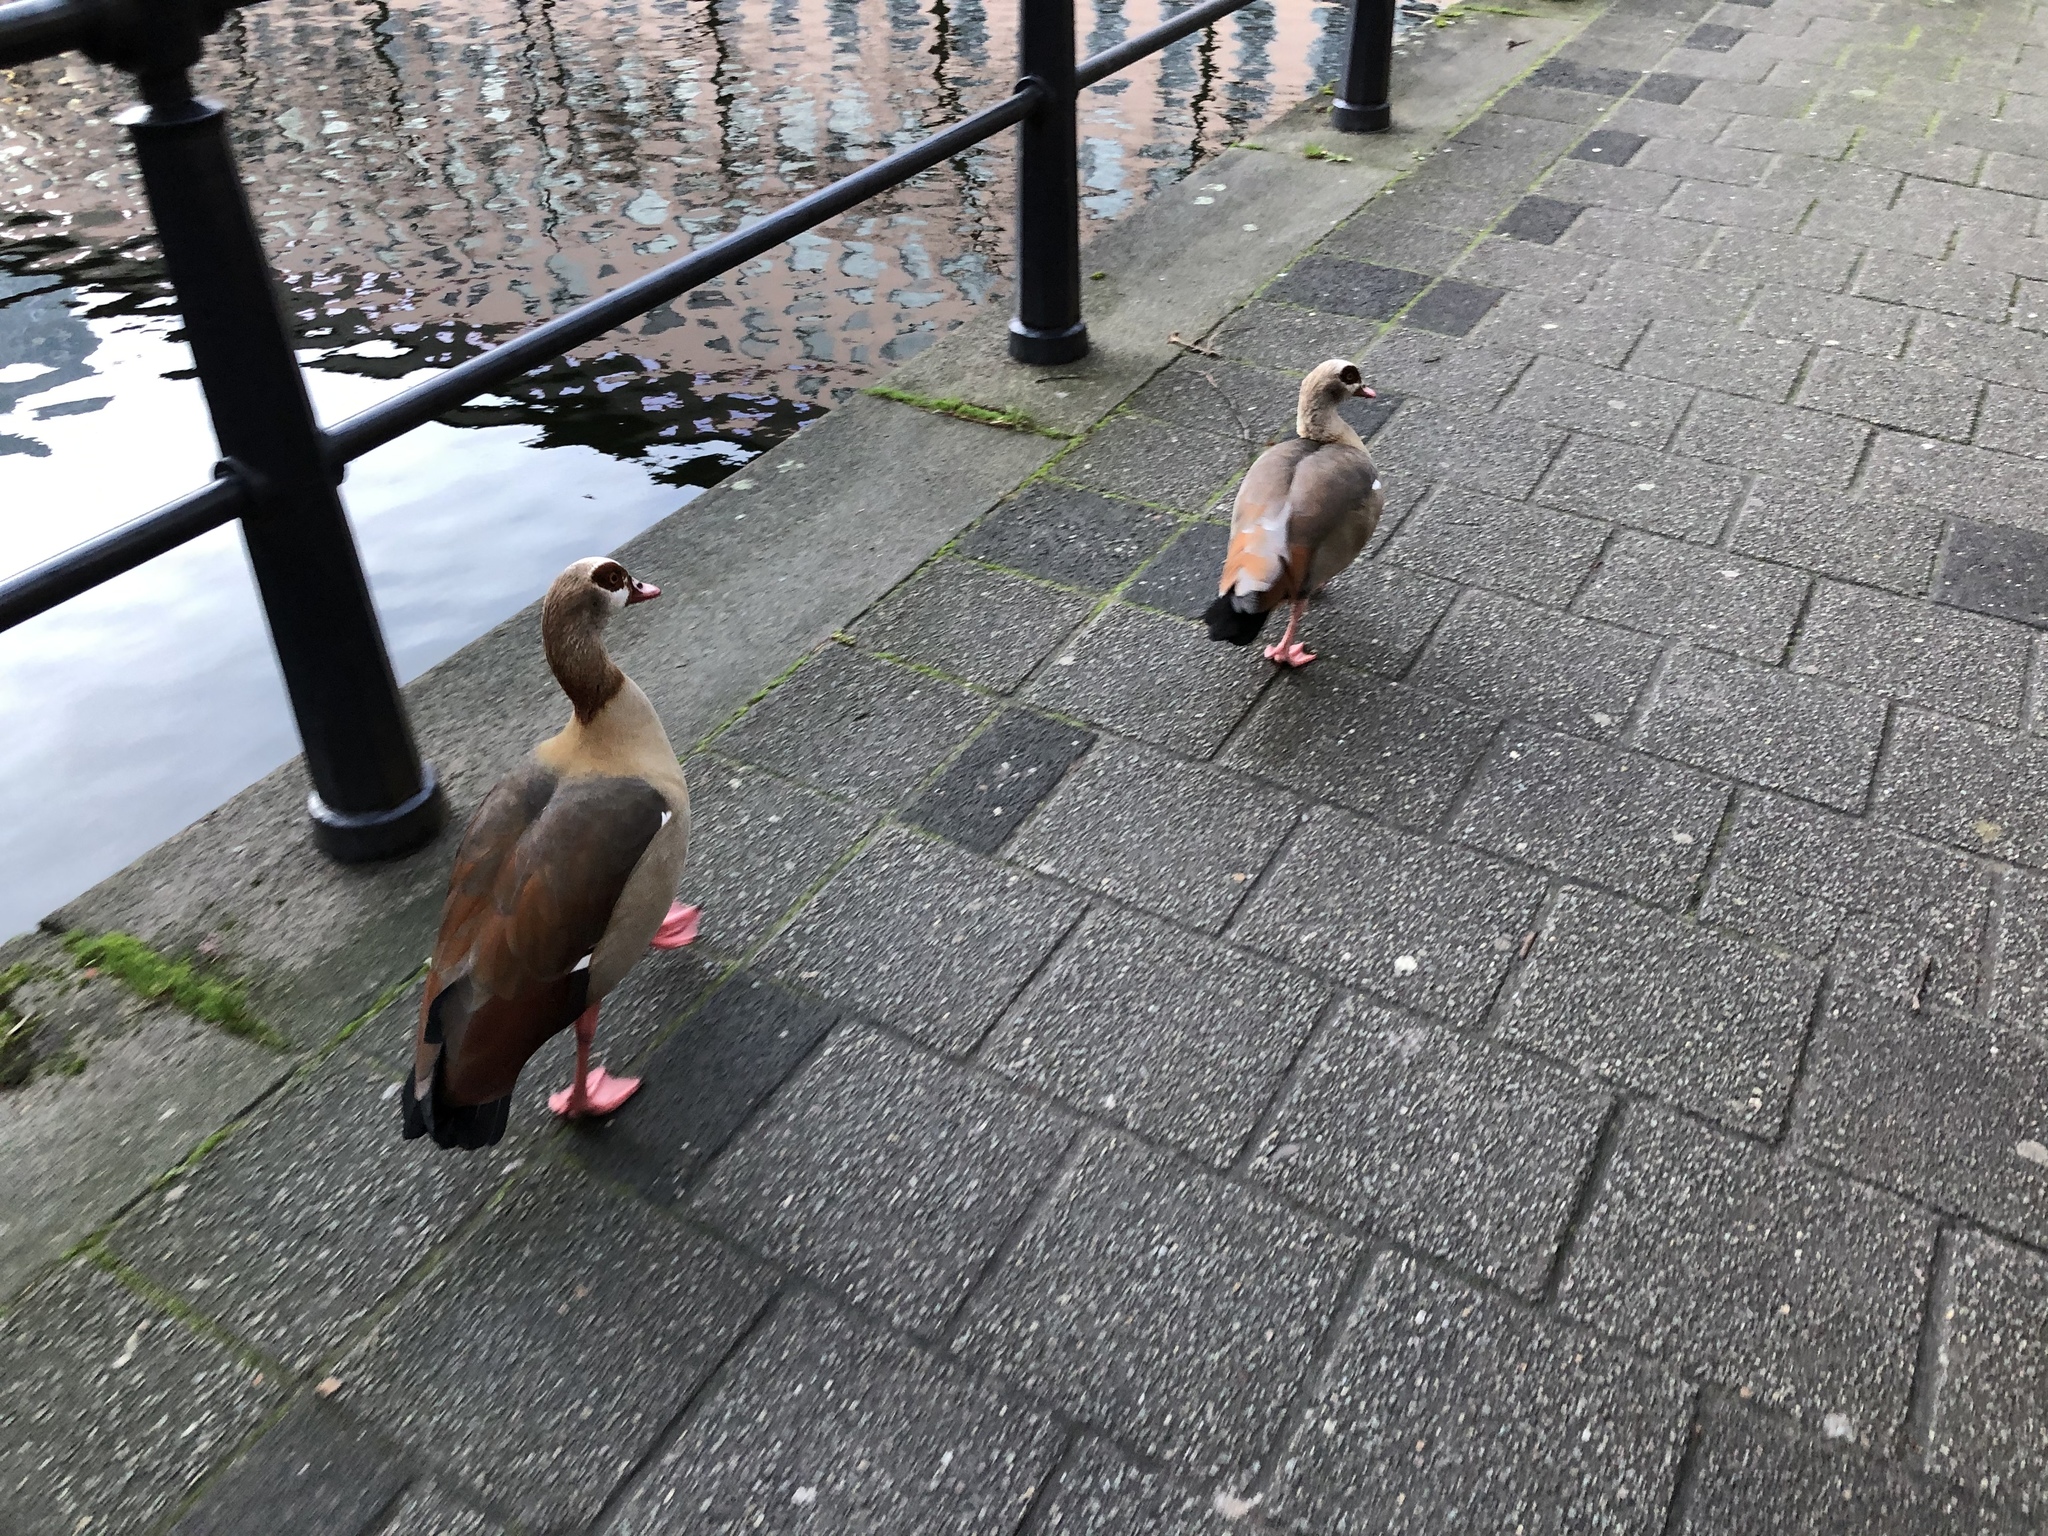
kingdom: Animalia
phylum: Chordata
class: Aves
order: Anseriformes
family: Anatidae
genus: Alopochen
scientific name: Alopochen aegyptiaca
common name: Egyptian goose
